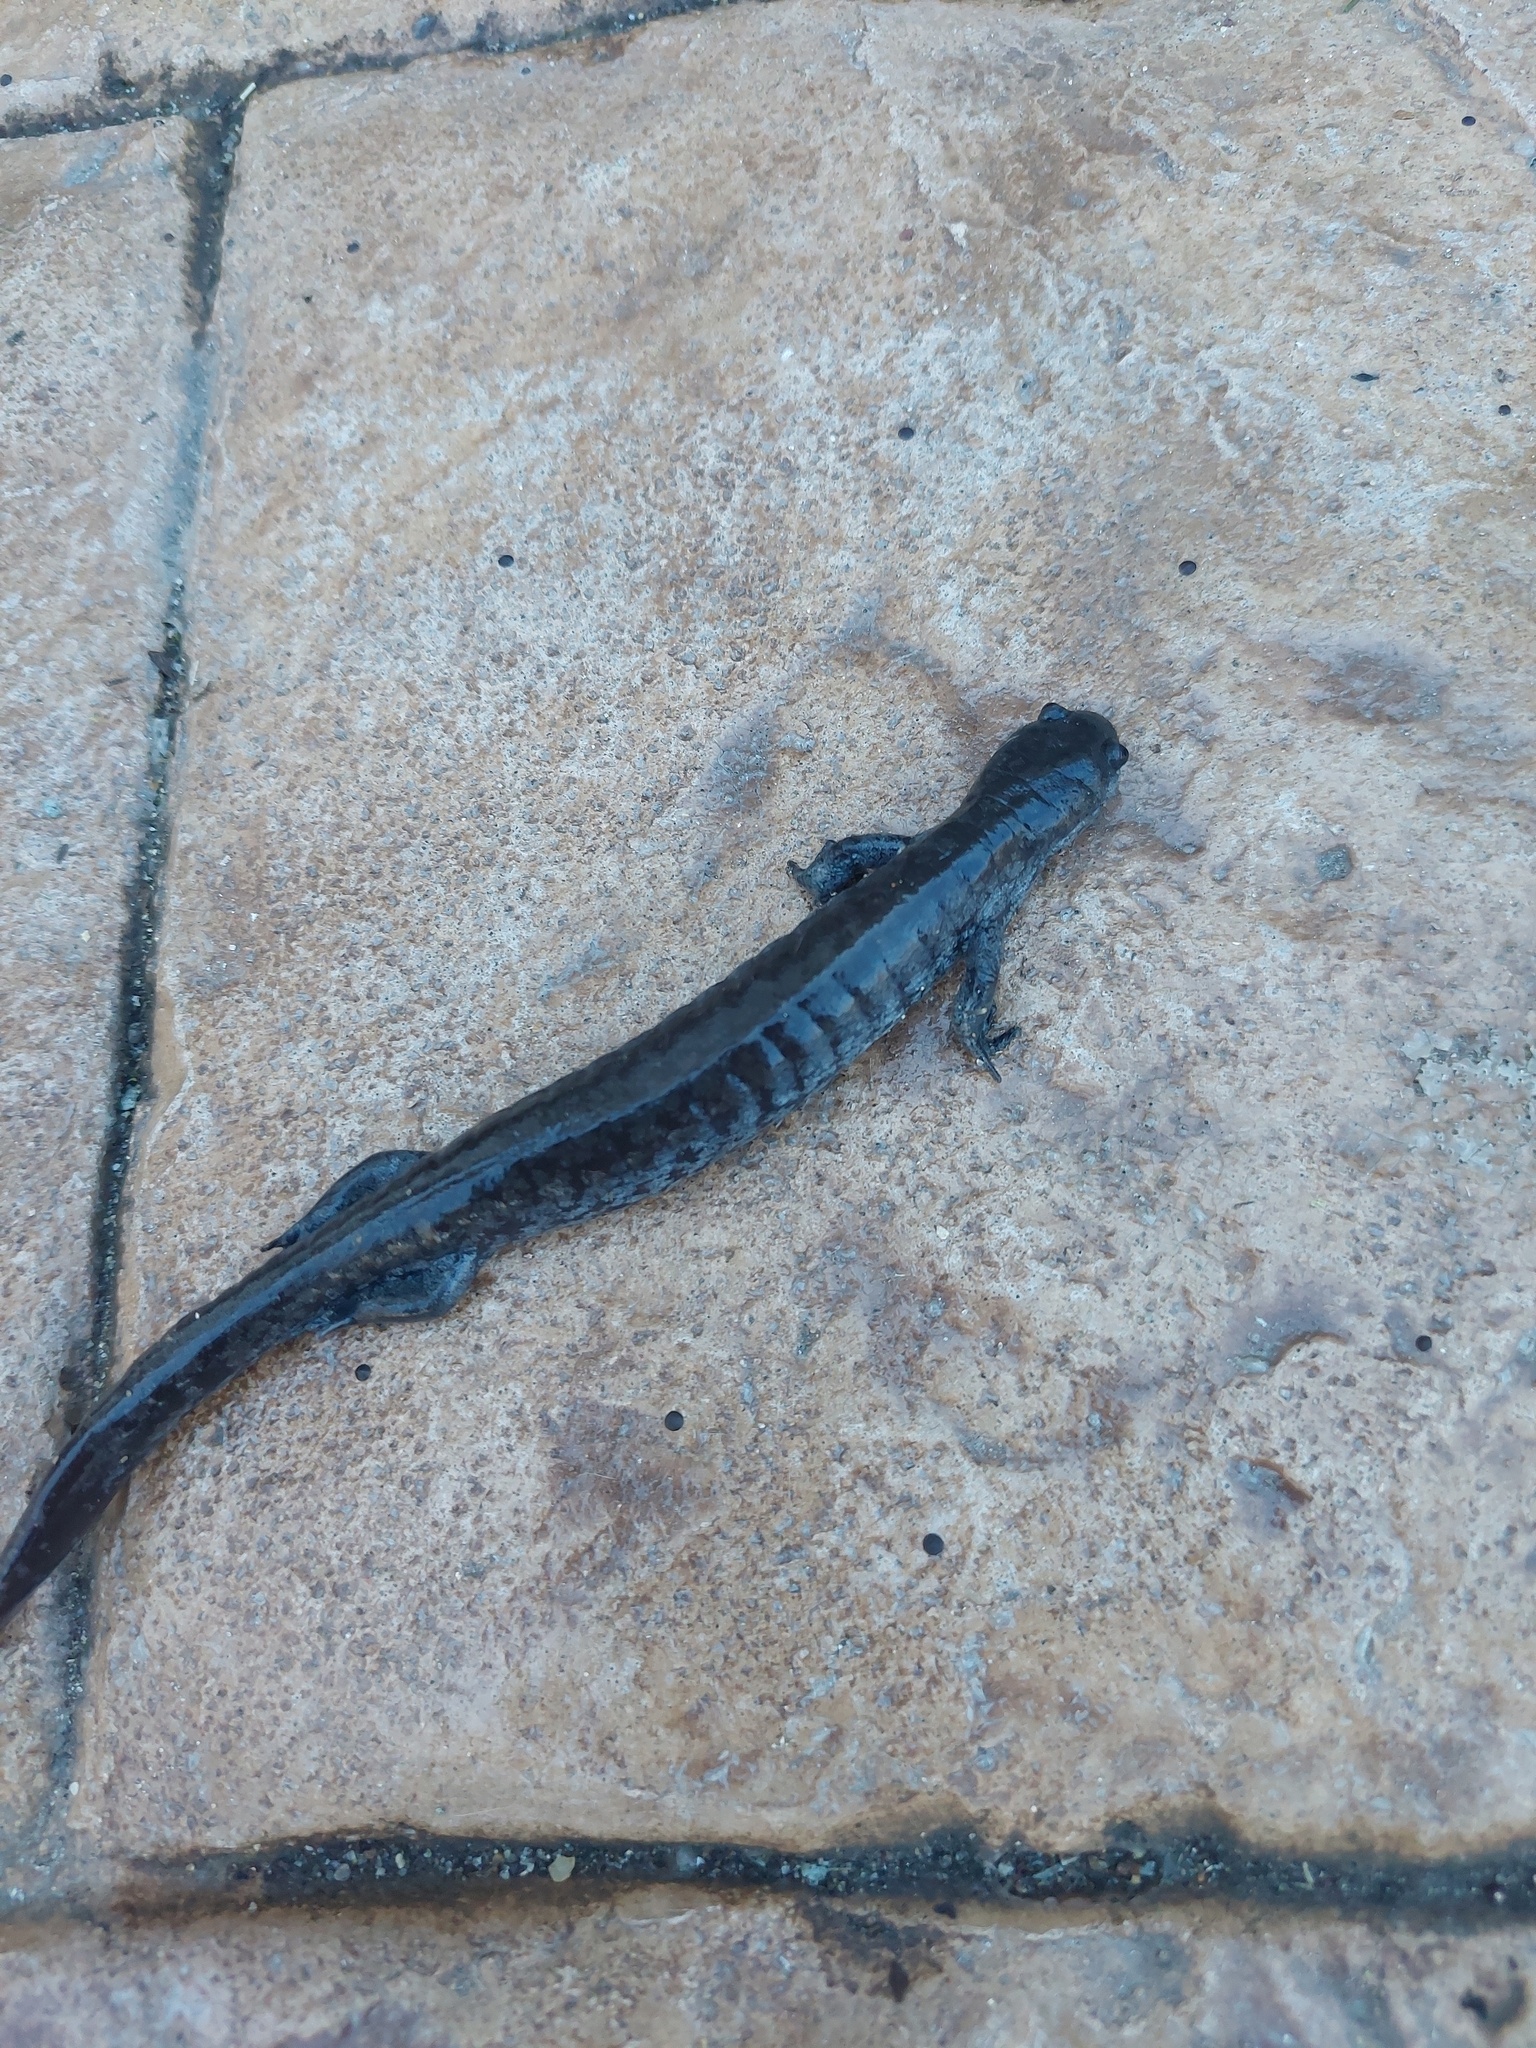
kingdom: Animalia
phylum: Chordata
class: Amphibia
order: Caudata
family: Ambystomatidae
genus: Ambystoma
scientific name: Ambystoma texanum
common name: Small-mouth salamander
